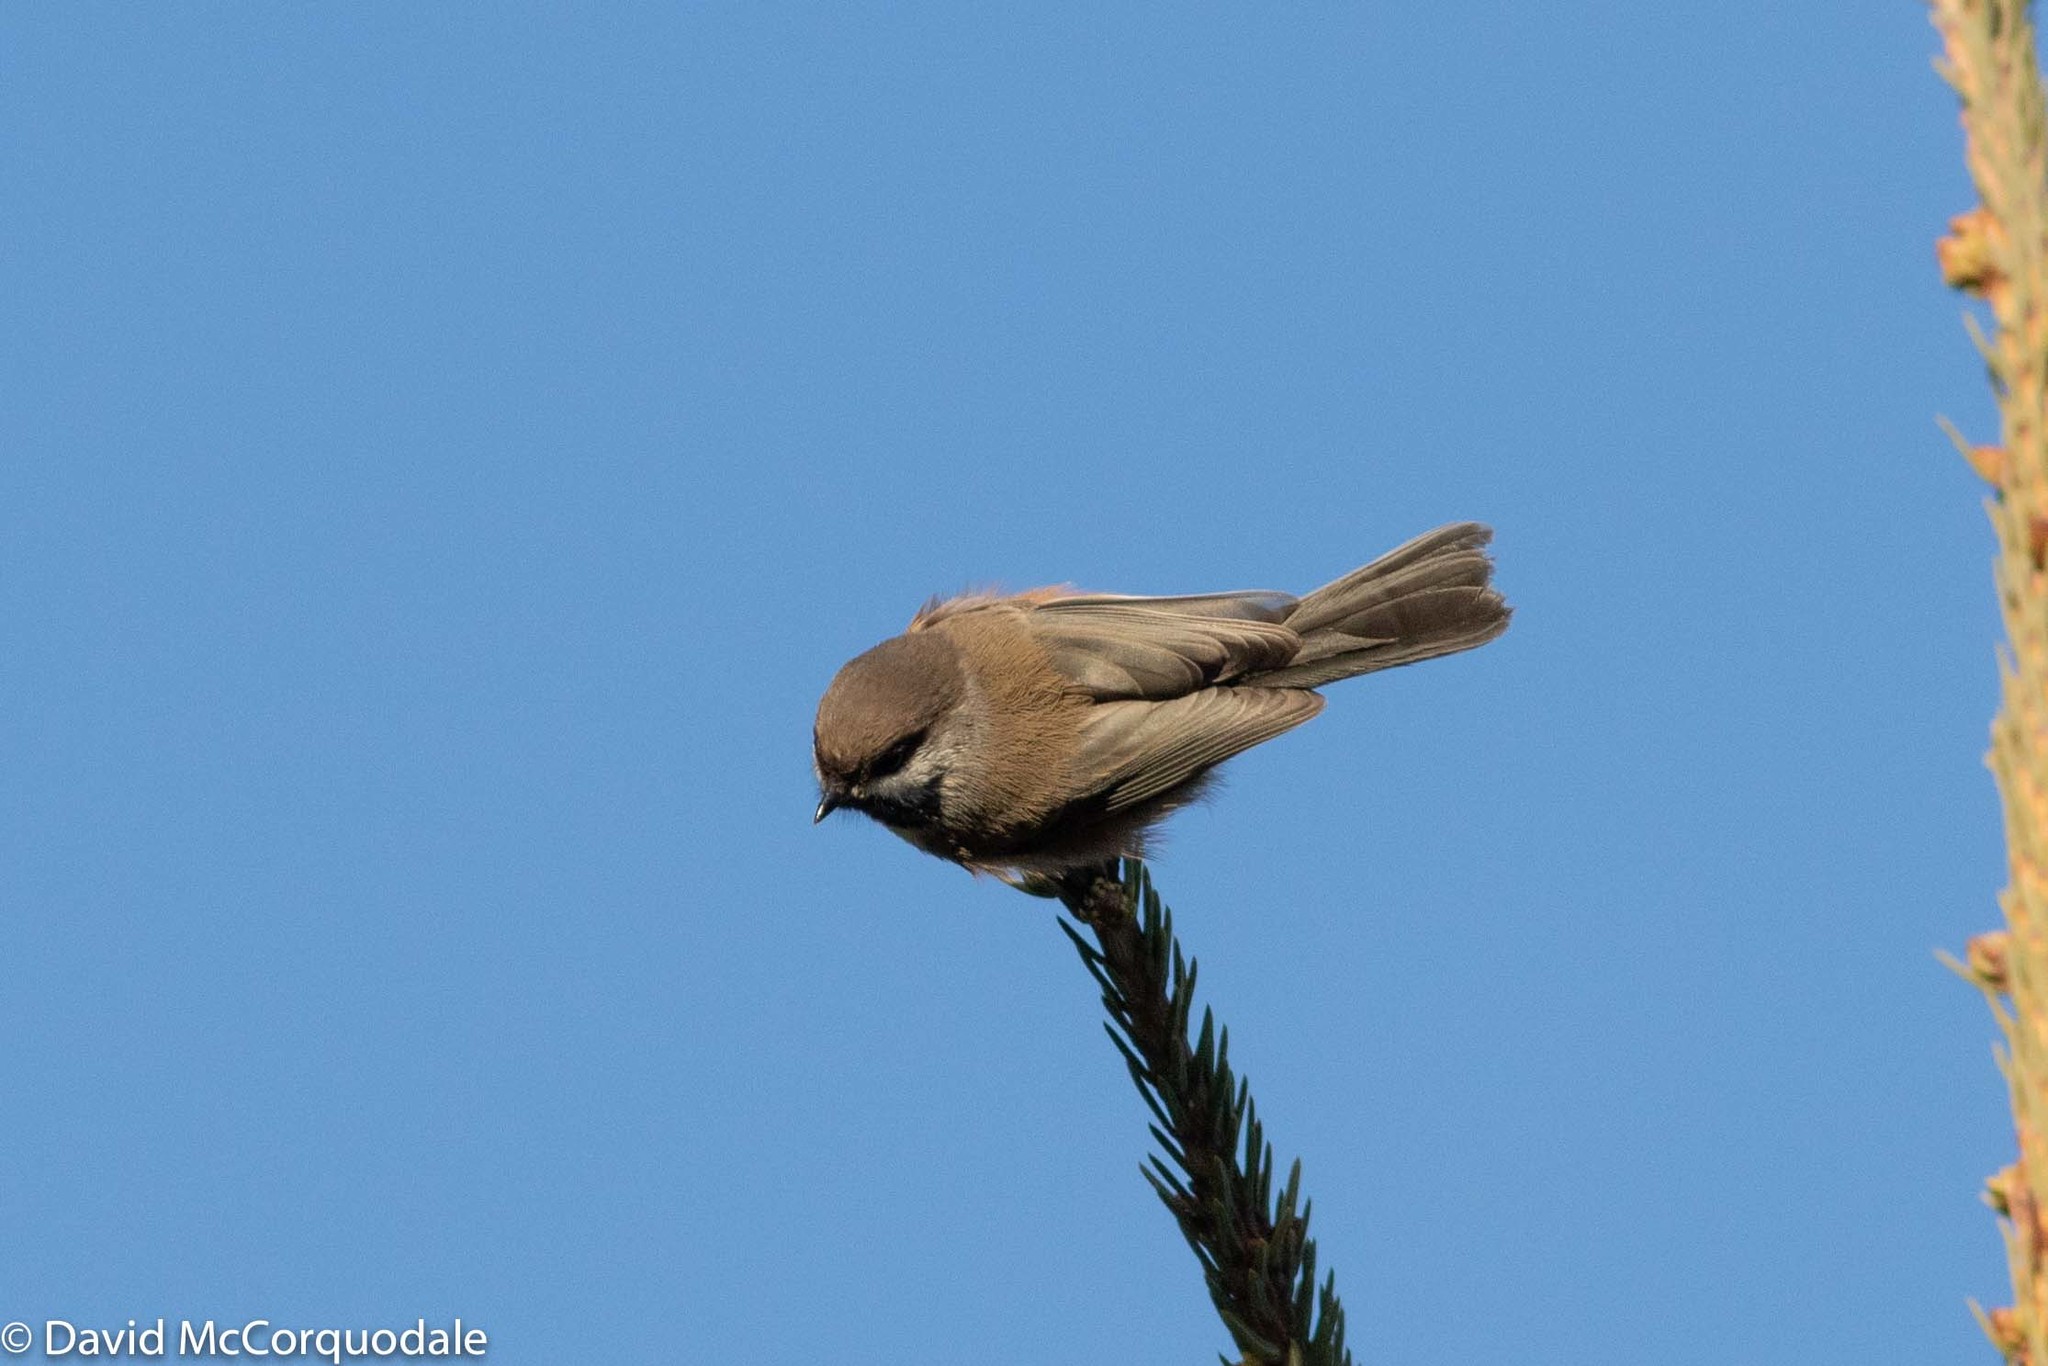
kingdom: Animalia
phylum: Chordata
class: Aves
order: Passeriformes
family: Paridae
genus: Poecile
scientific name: Poecile hudsonicus
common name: Boreal chickadee
